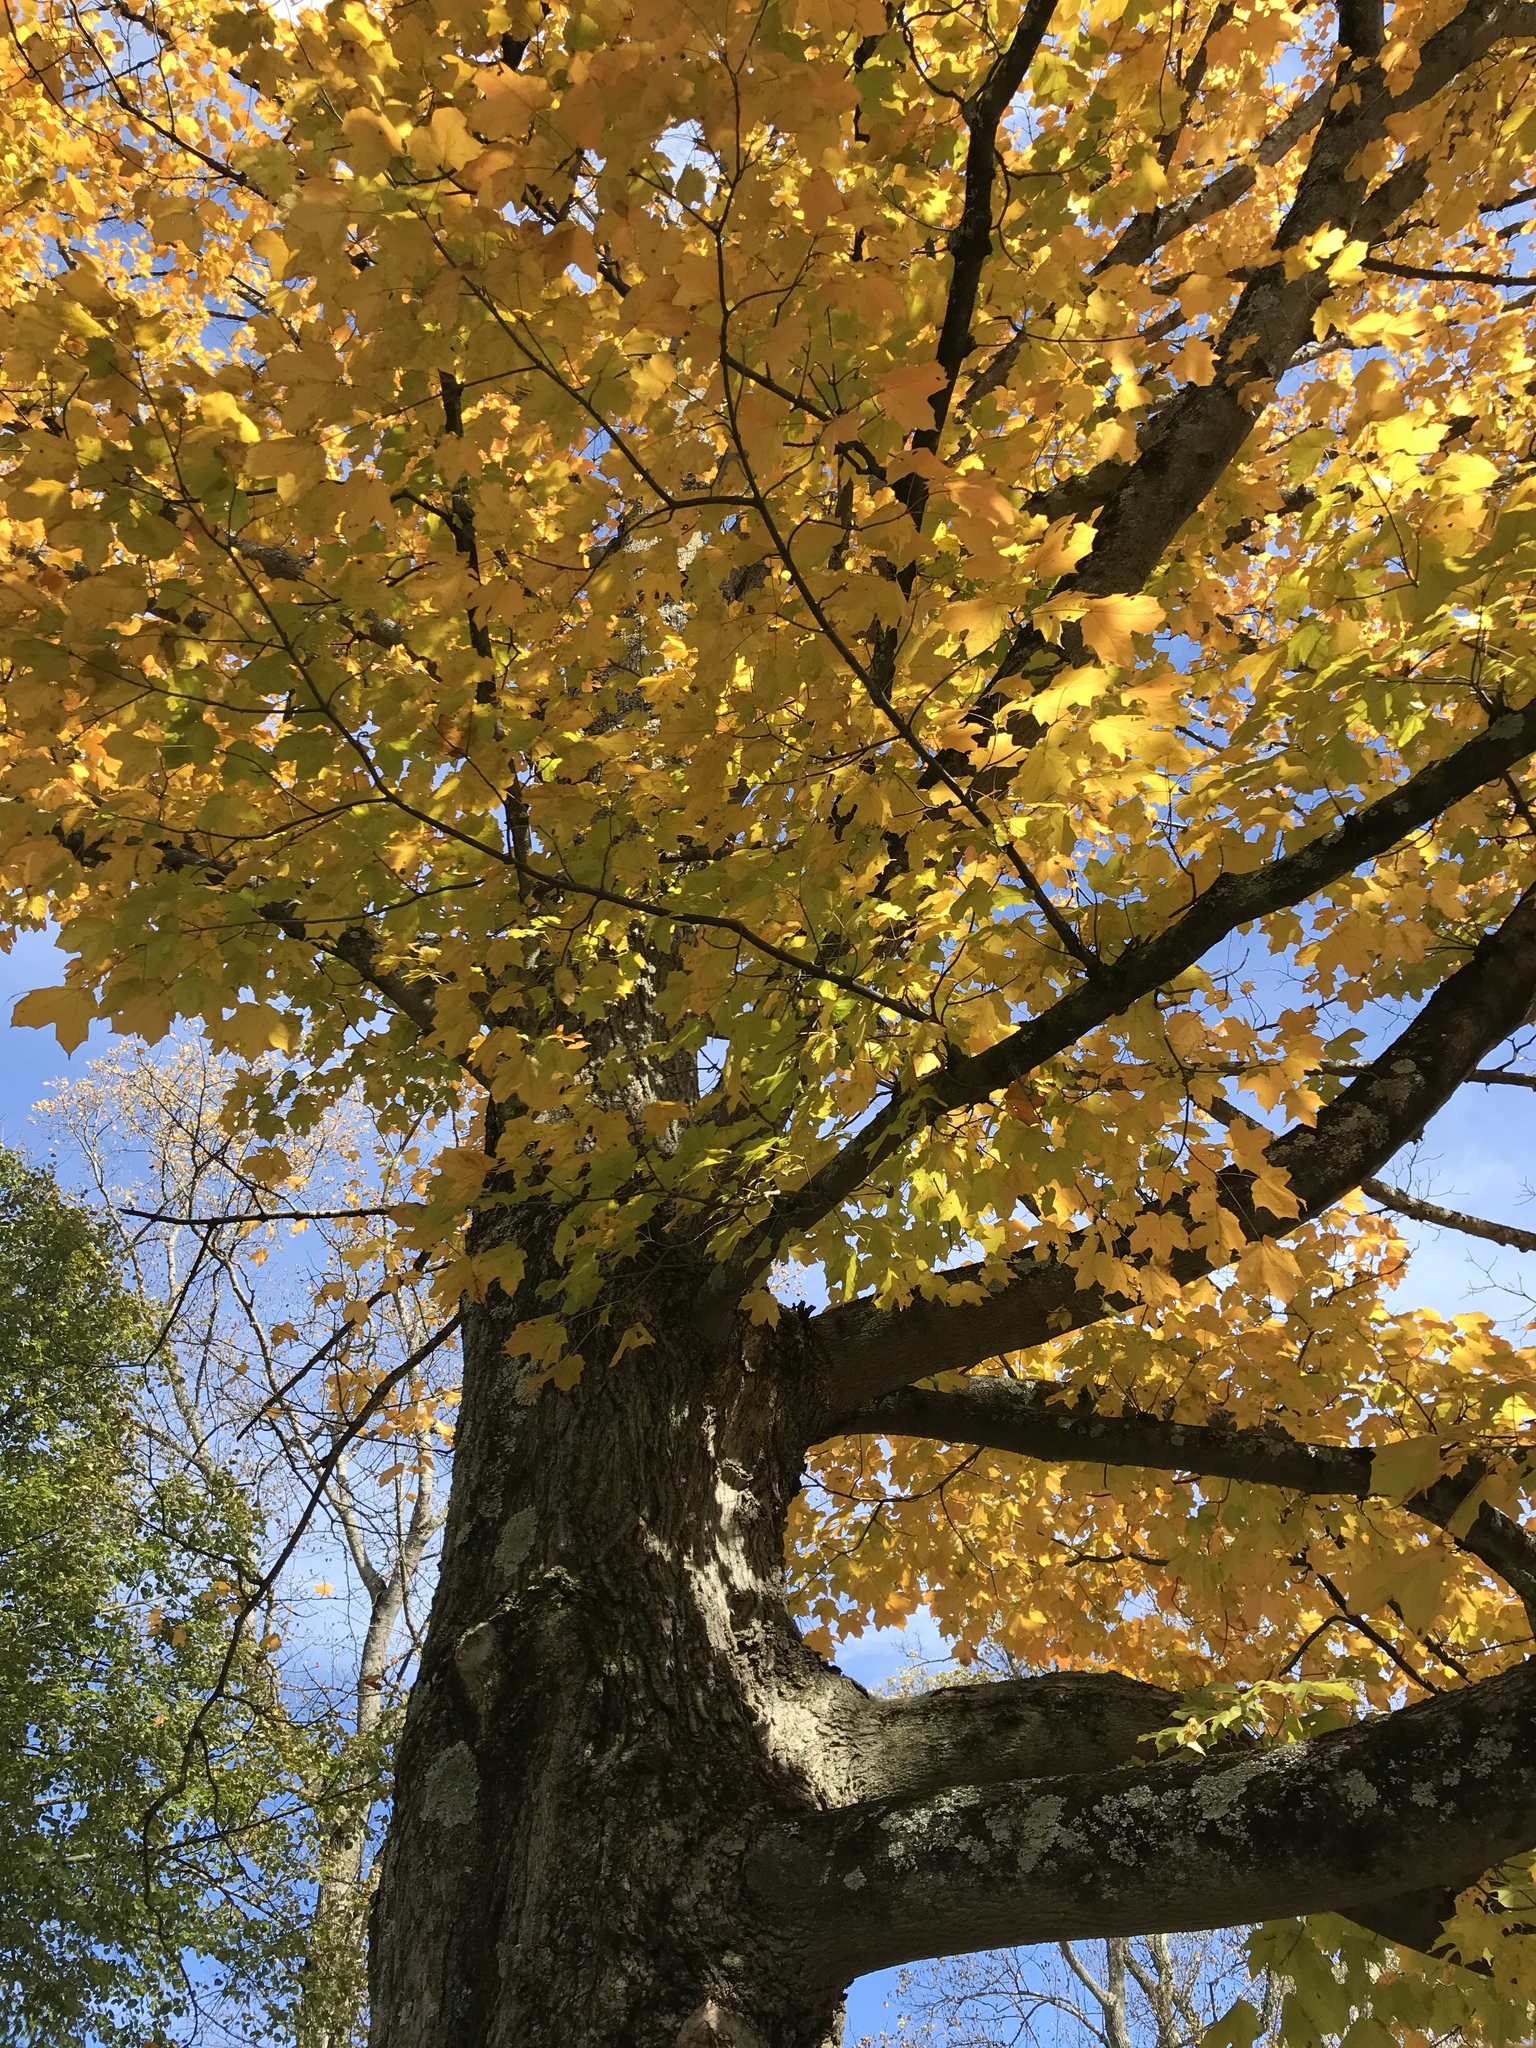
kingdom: Plantae
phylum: Tracheophyta
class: Magnoliopsida
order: Sapindales
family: Sapindaceae
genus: Acer
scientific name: Acer nigrum
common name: Black maple
